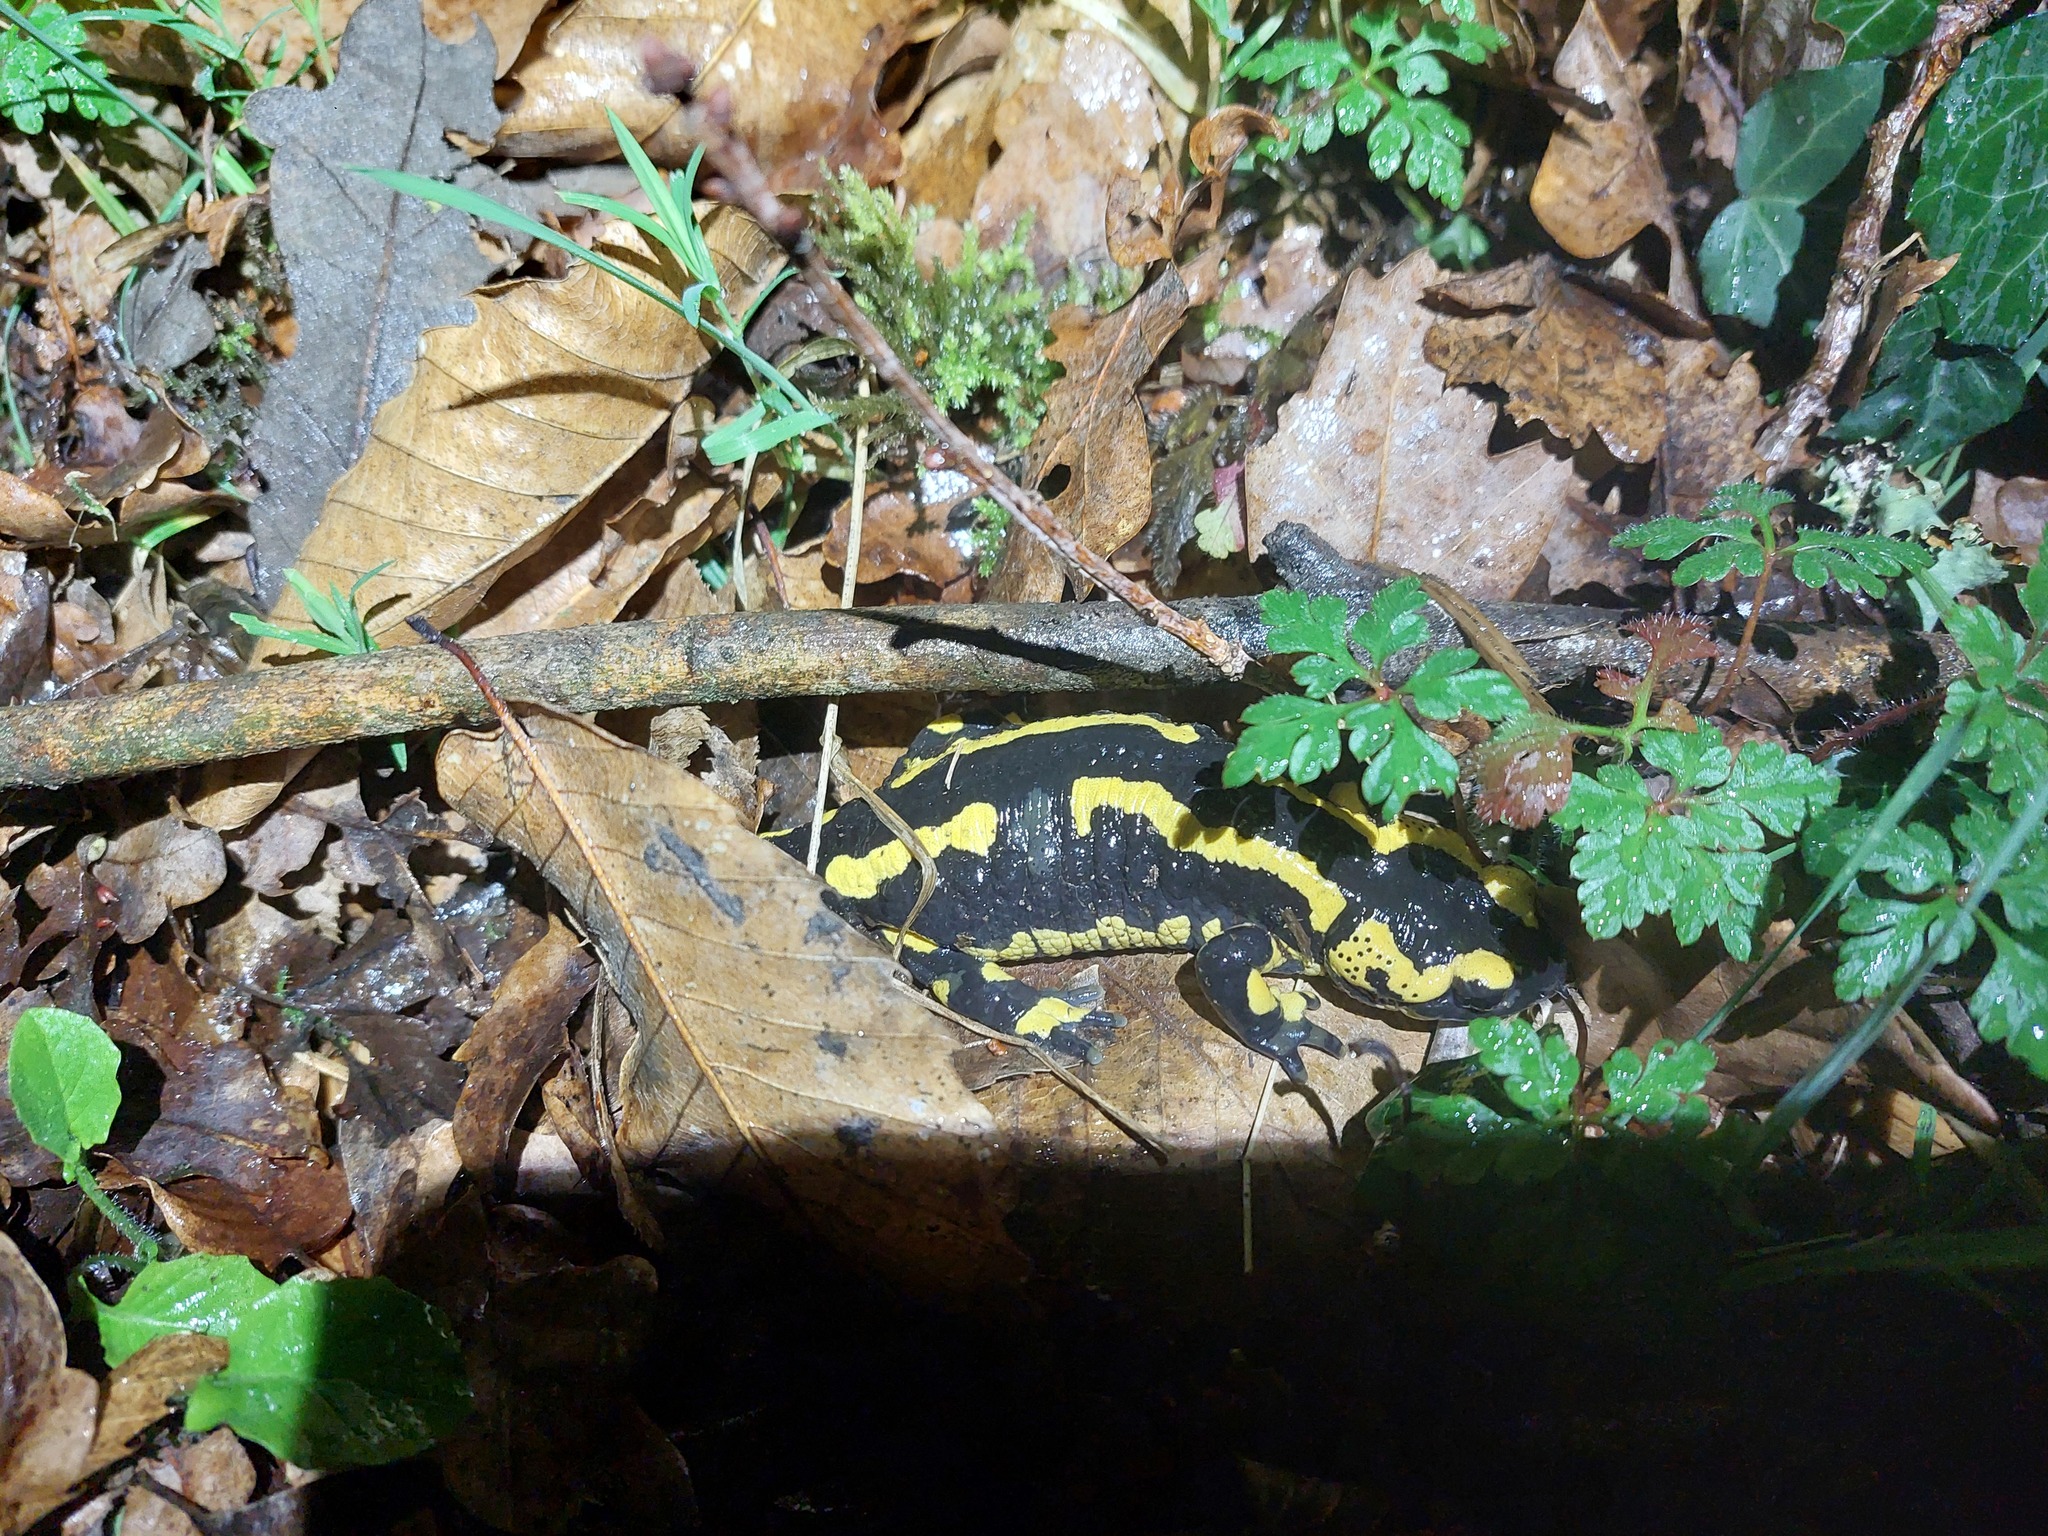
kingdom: Animalia
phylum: Chordata
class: Amphibia
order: Caudata
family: Salamandridae
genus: Salamandra
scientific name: Salamandra salamandra
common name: Fire salamander
